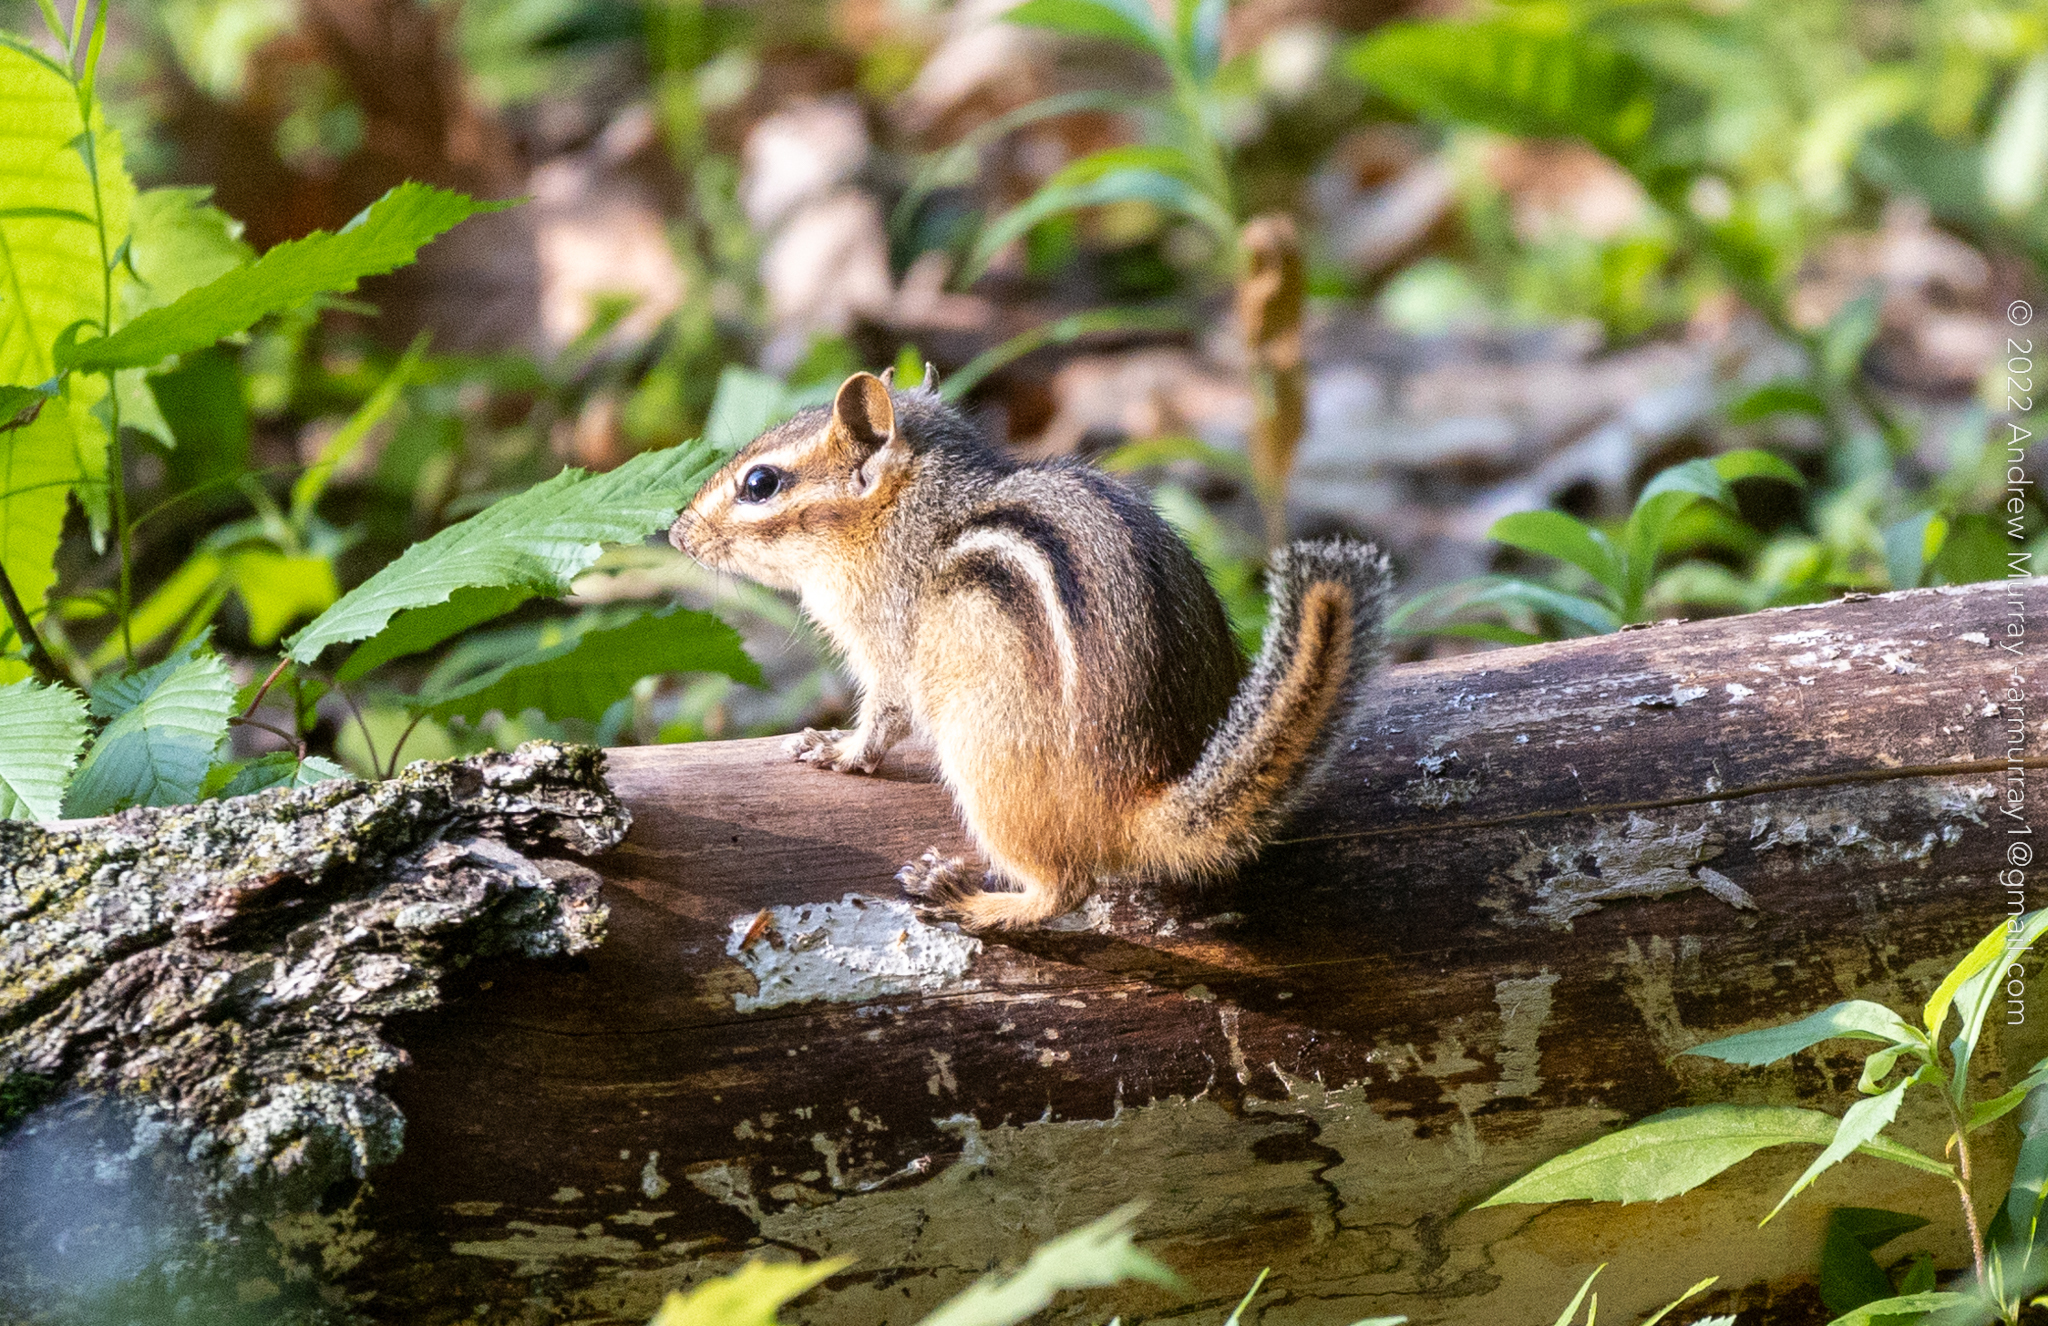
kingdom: Animalia
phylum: Chordata
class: Mammalia
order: Rodentia
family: Sciuridae
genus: Tamias
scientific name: Tamias striatus
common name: Eastern chipmunk
